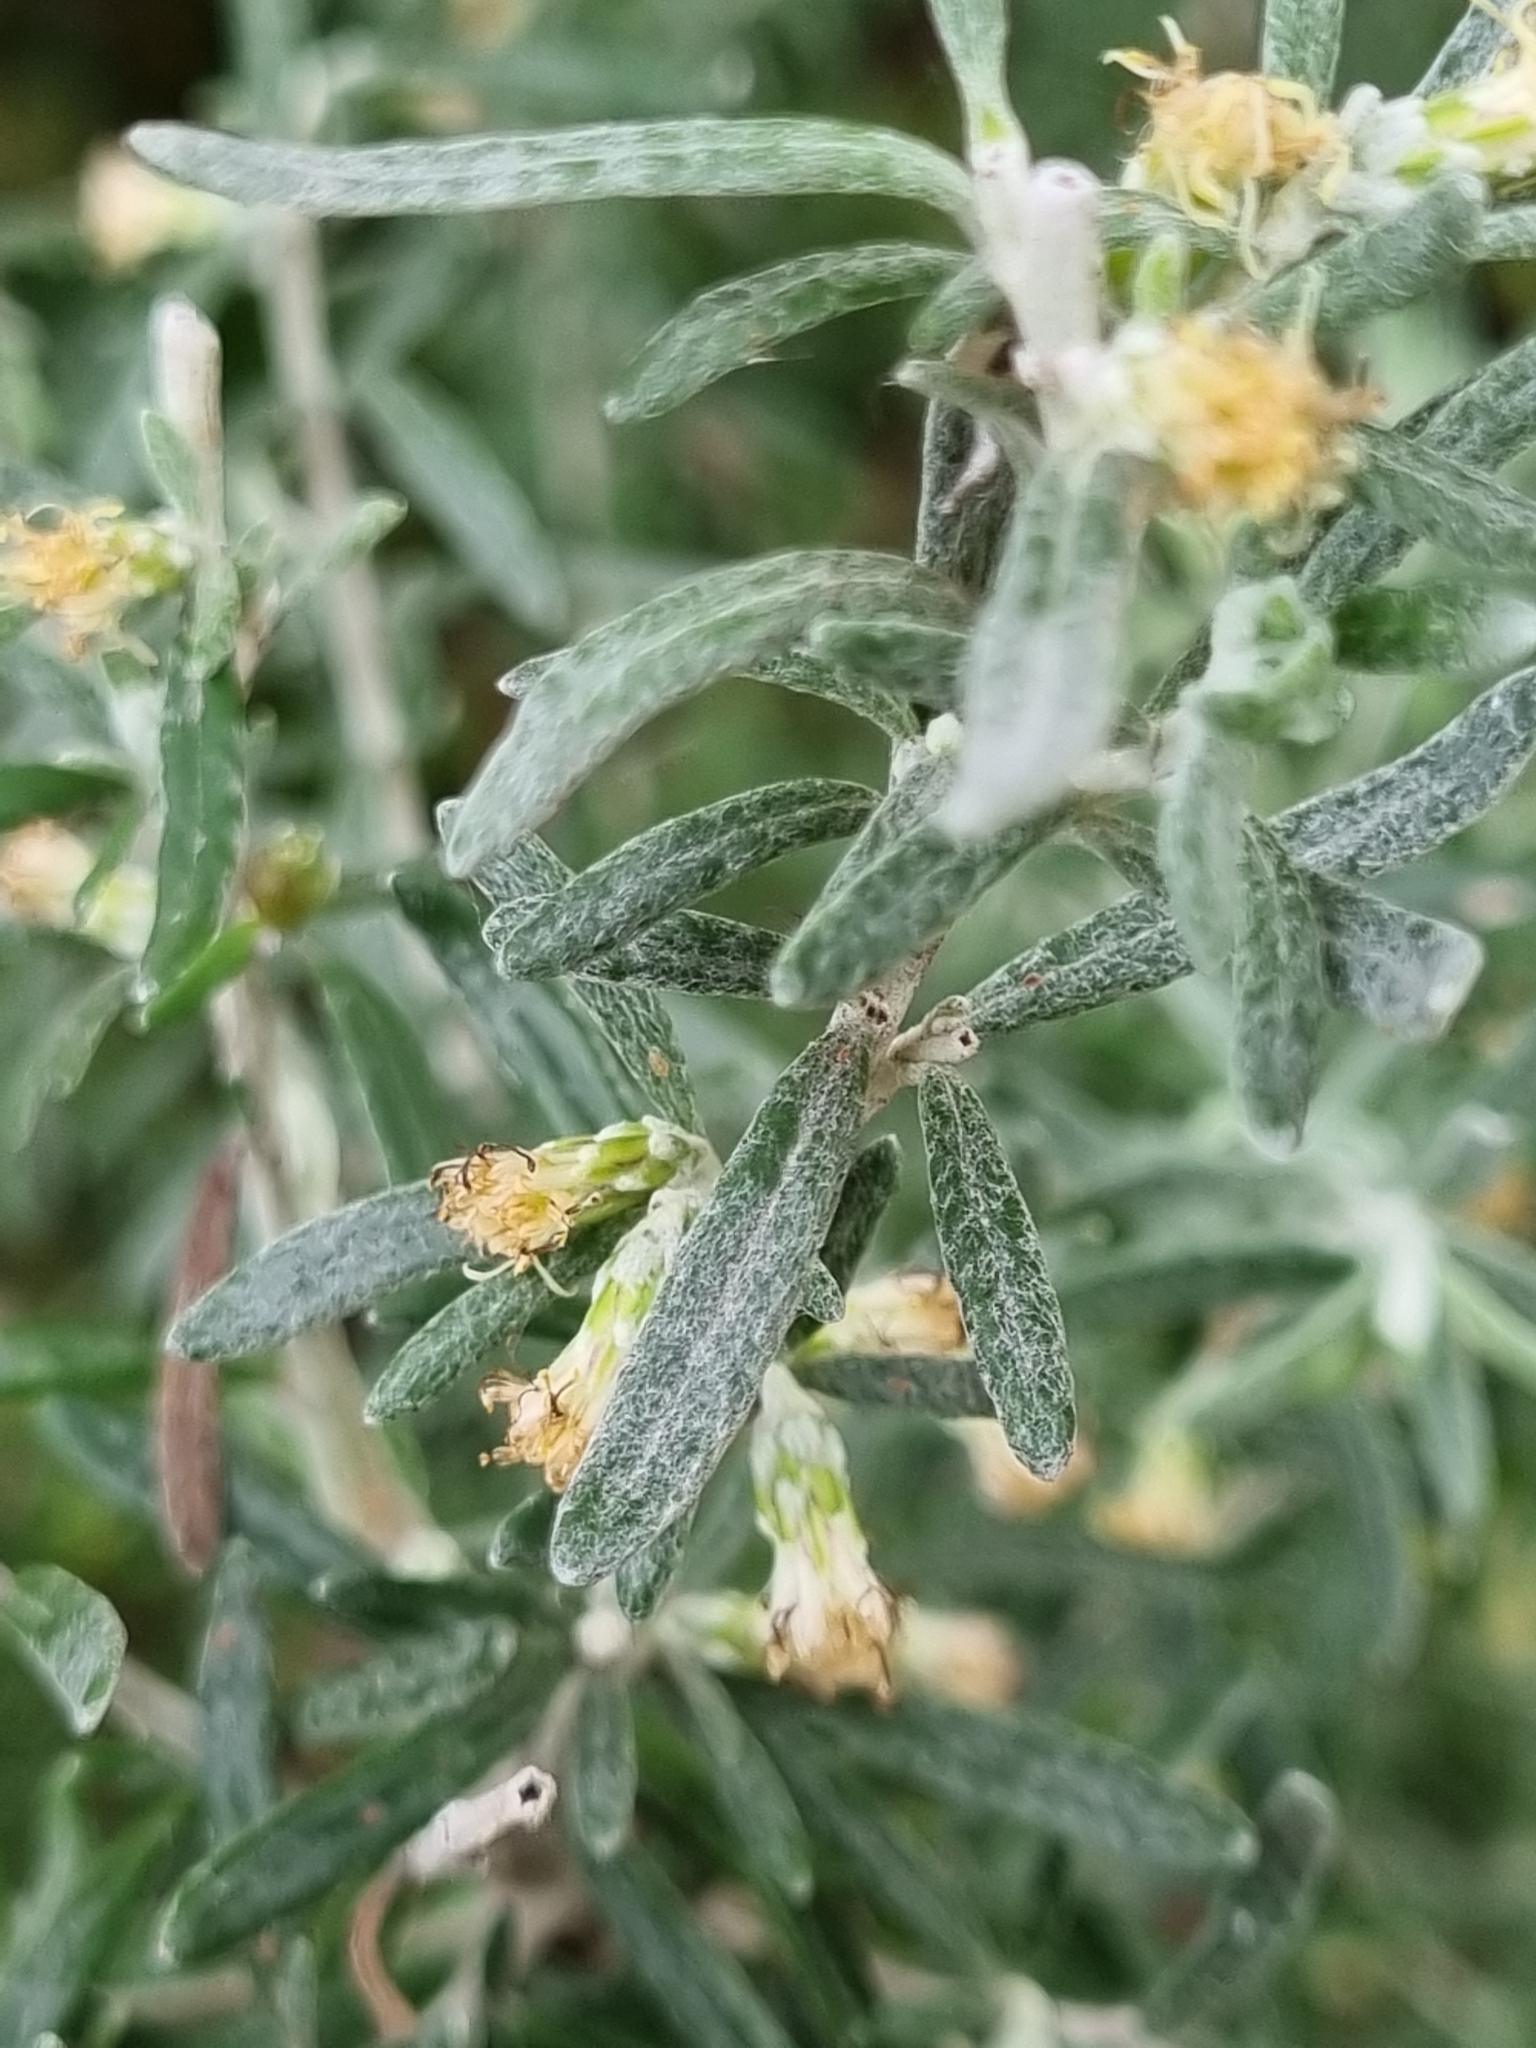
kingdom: Plantae
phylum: Tracheophyta
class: Magnoliopsida
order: Asterales
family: Asteraceae
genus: Olearia
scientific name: Olearia axillaris
